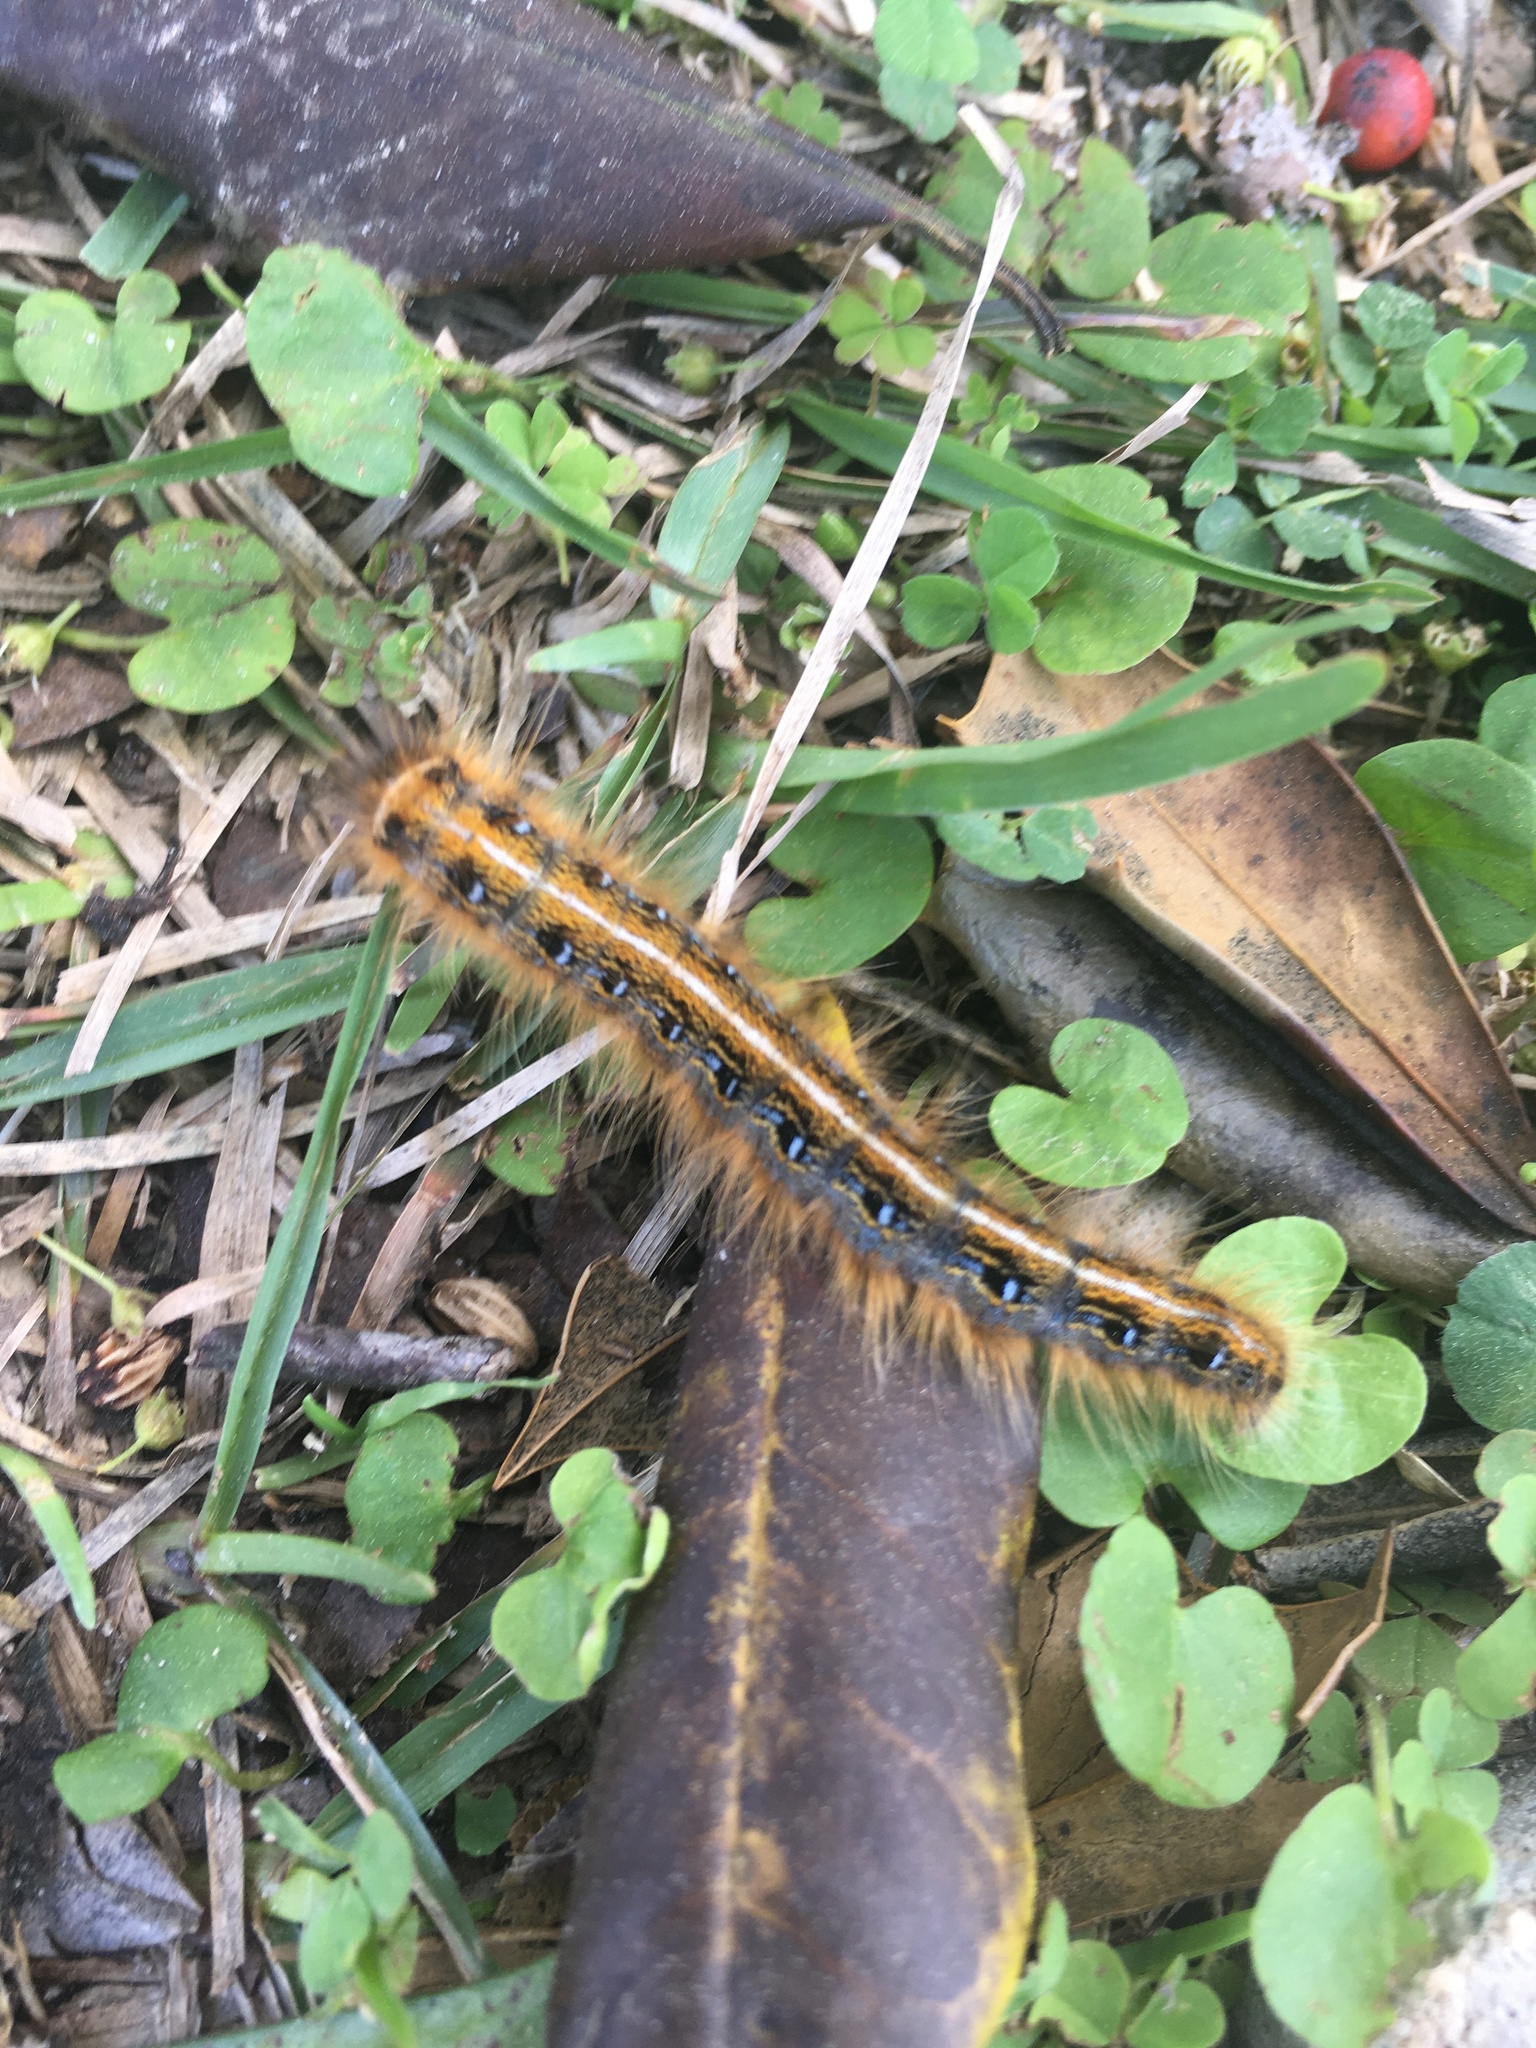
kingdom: Animalia
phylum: Arthropoda
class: Insecta
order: Lepidoptera
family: Lasiocampidae
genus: Malacosoma
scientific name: Malacosoma americana
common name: Eastern tent caterpillar moth
